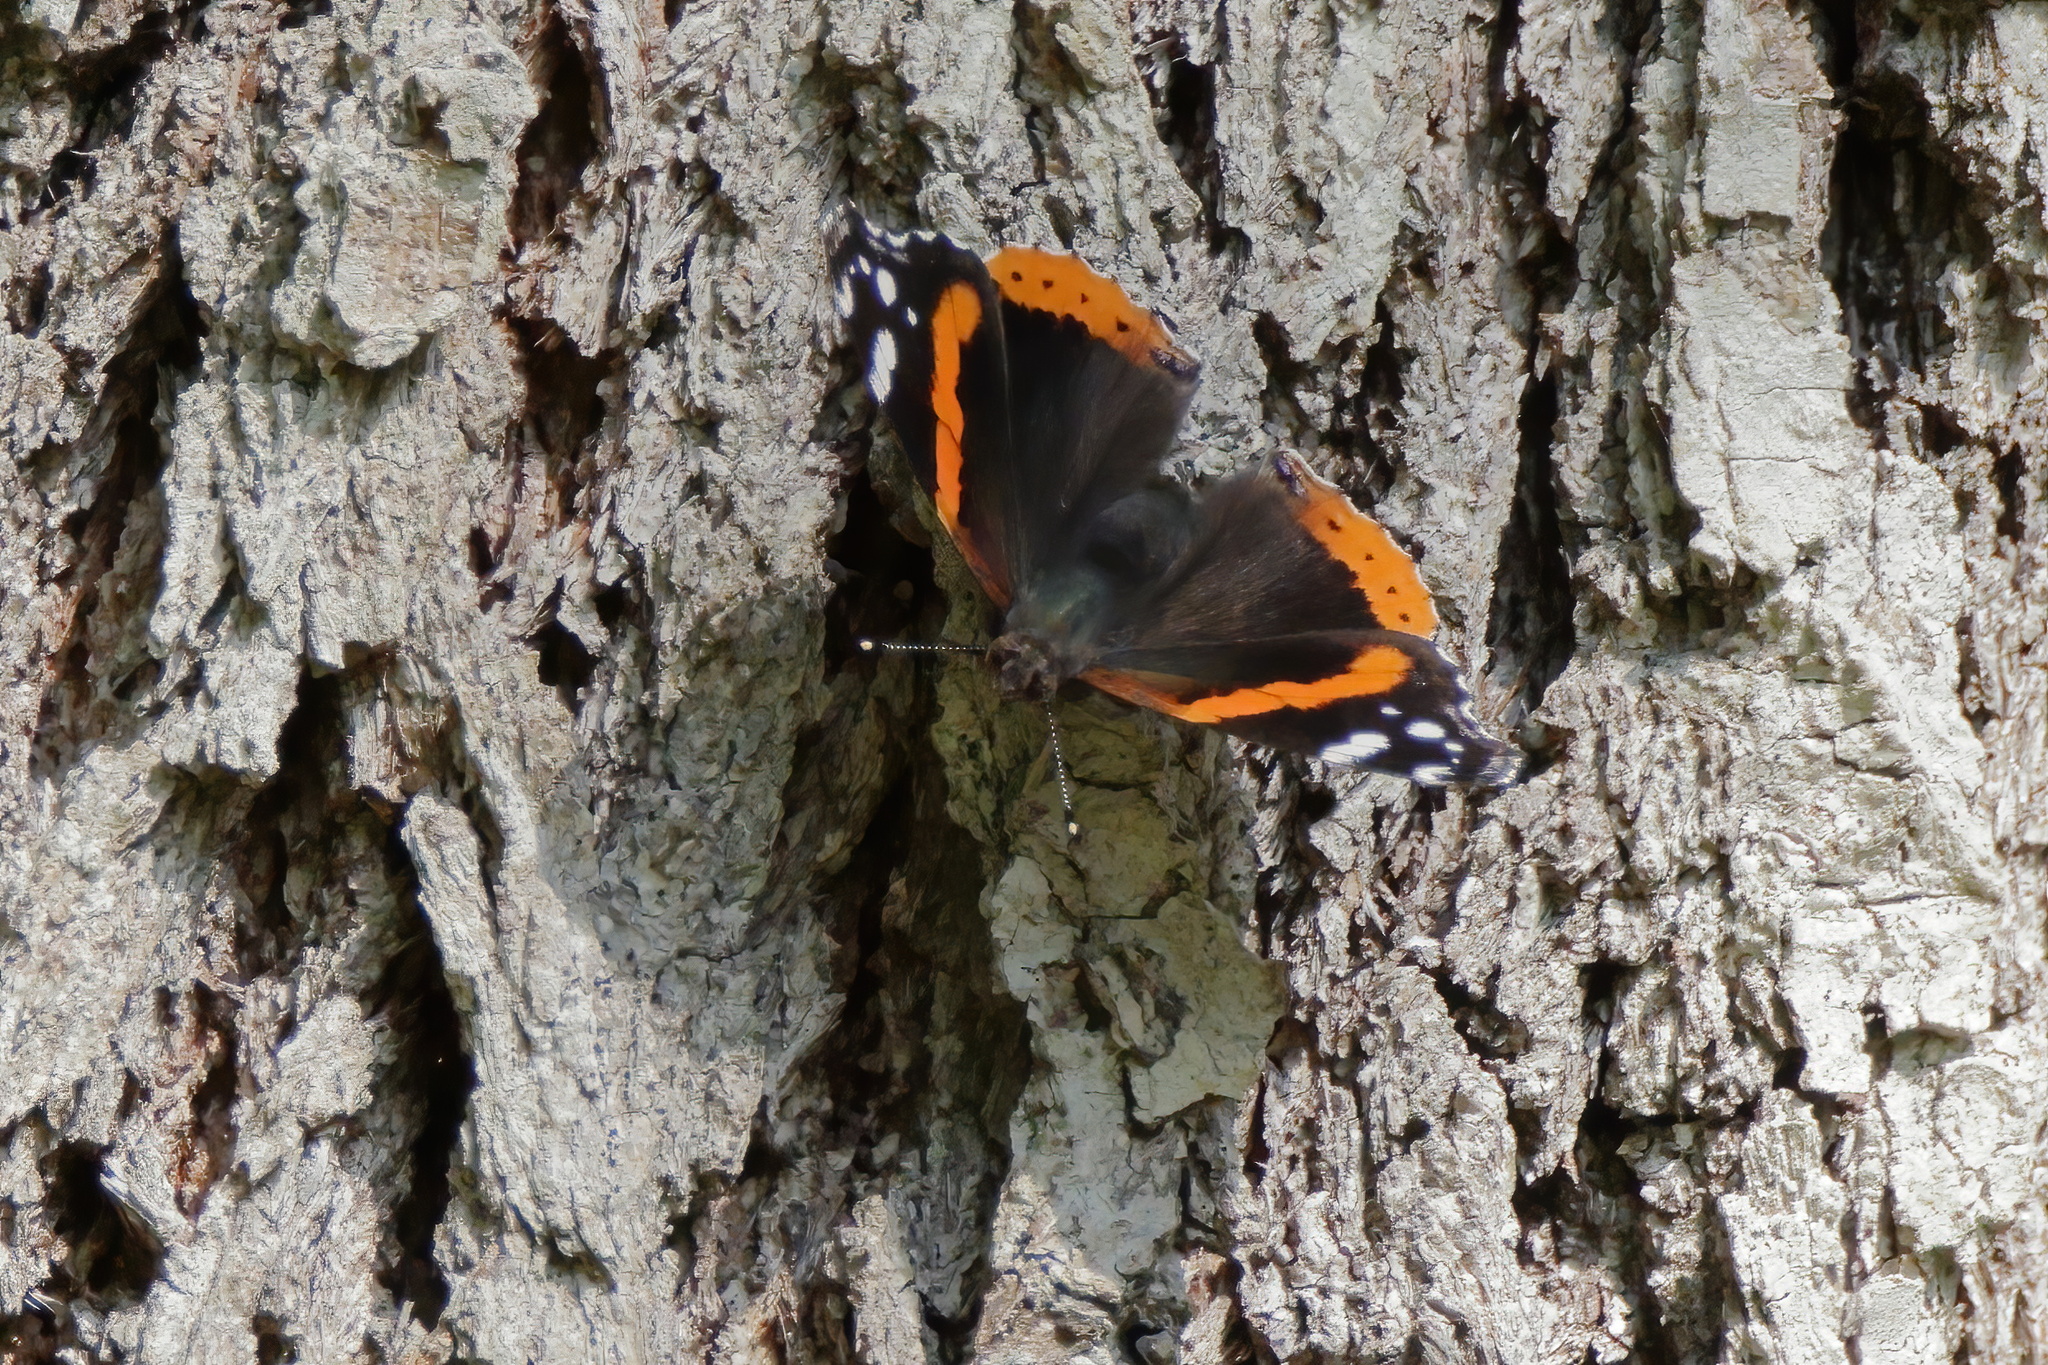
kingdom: Animalia
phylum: Arthropoda
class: Insecta
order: Lepidoptera
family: Nymphalidae
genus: Vanessa
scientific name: Vanessa atalanta
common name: Red admiral
